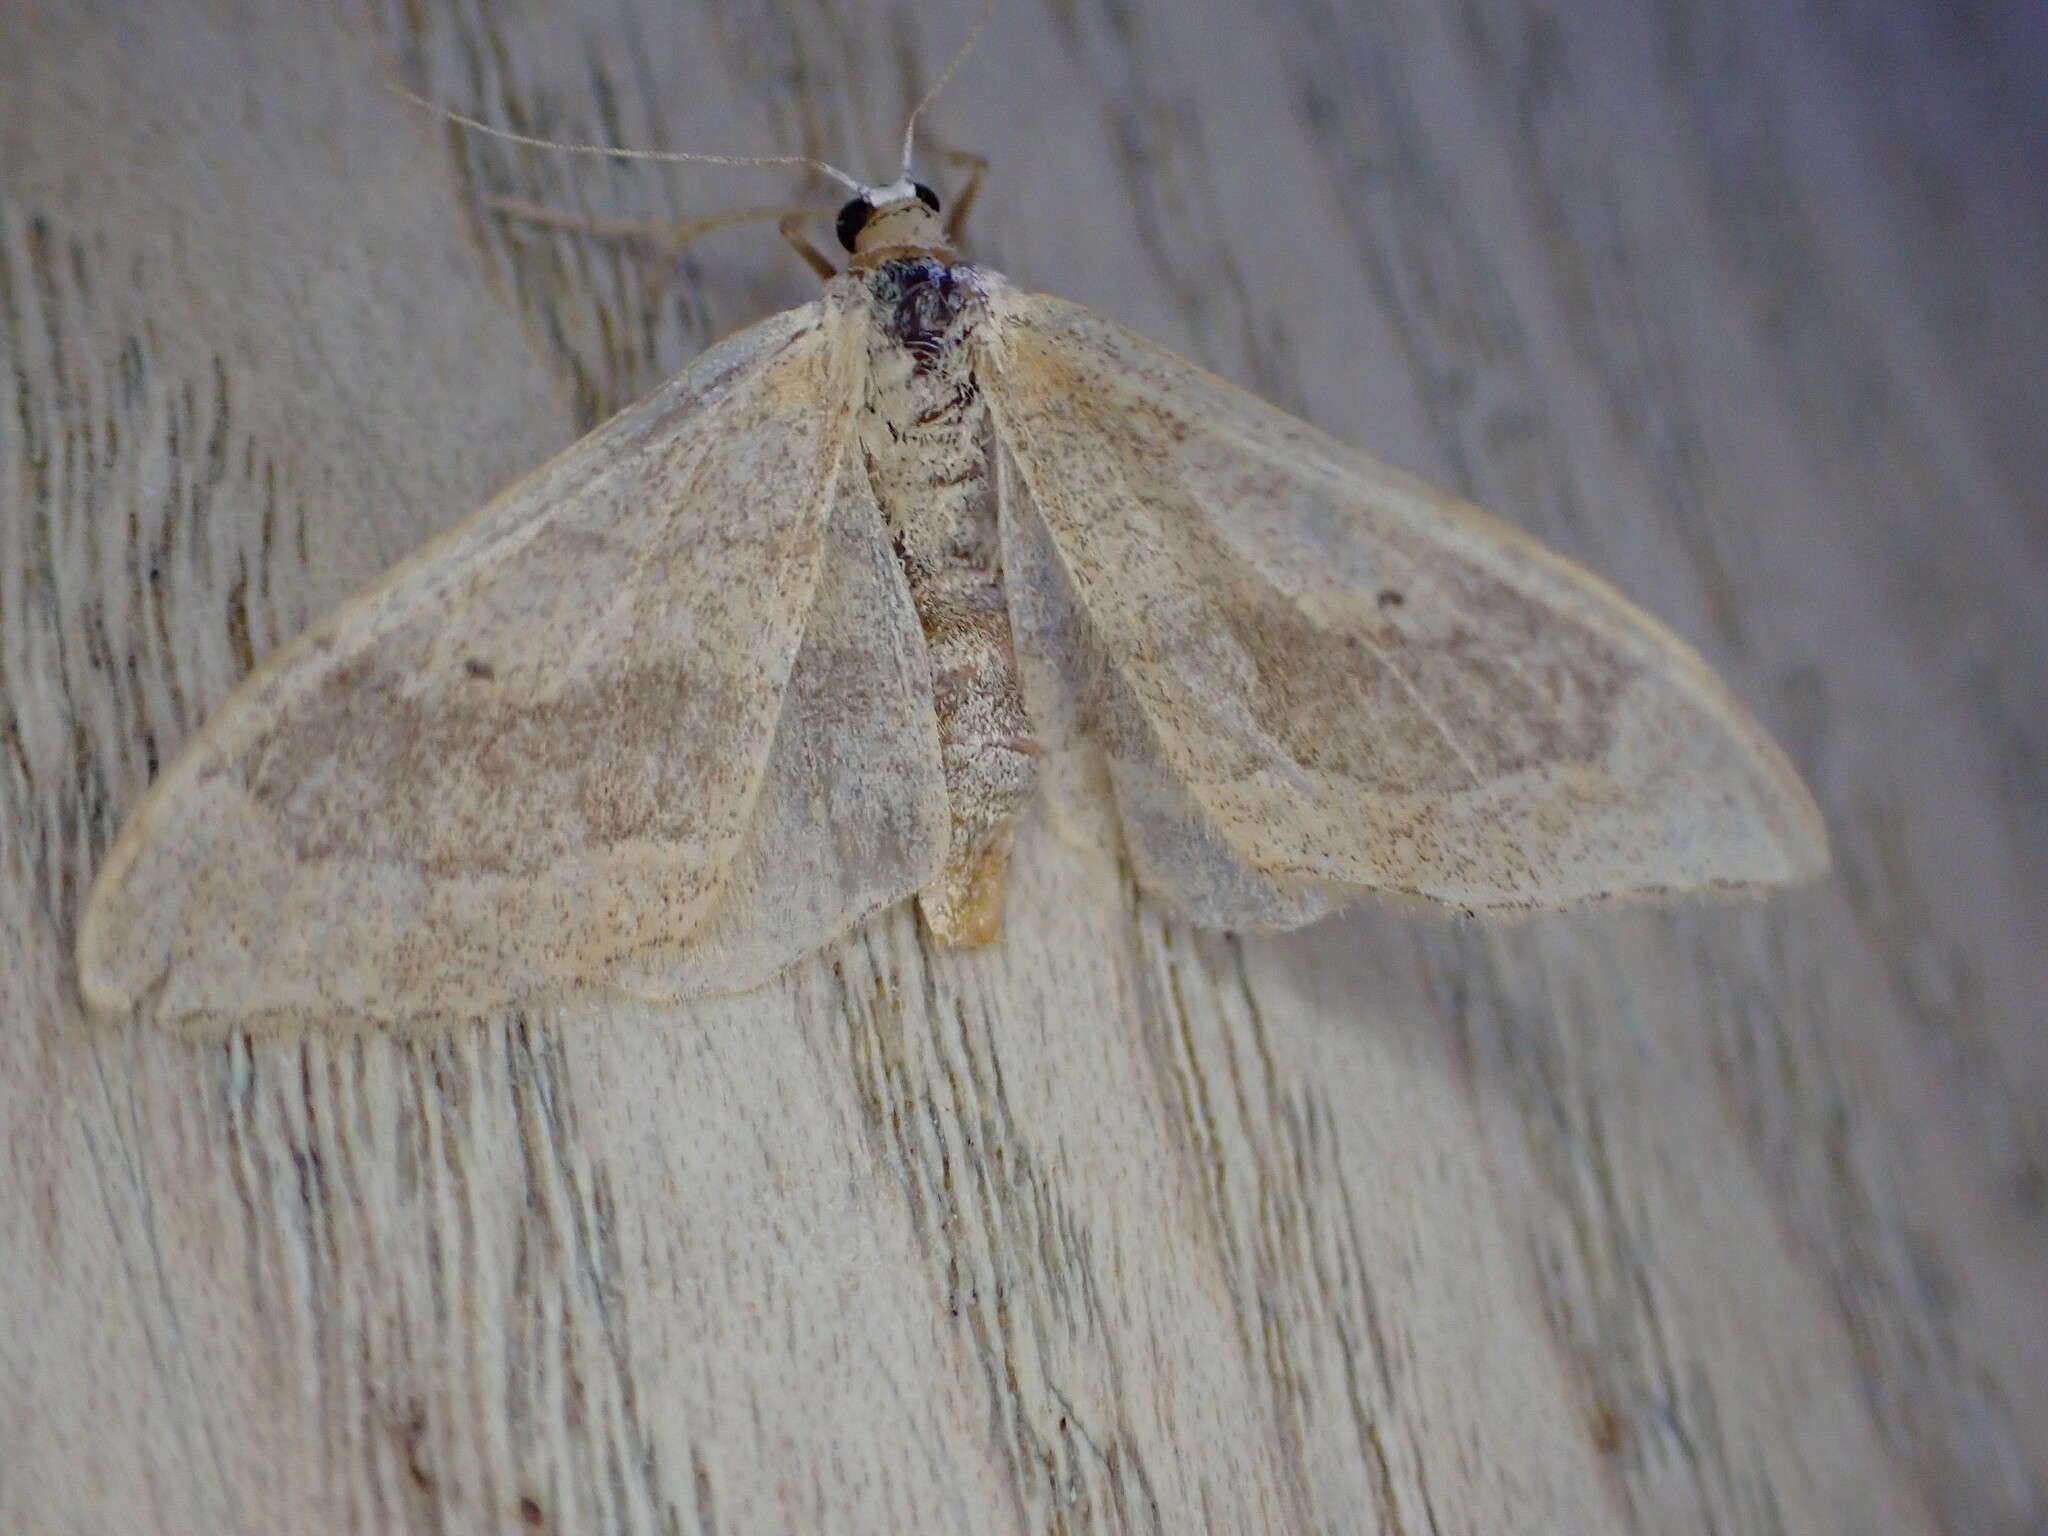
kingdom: Animalia
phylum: Arthropoda
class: Insecta
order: Lepidoptera
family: Geometridae
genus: Idaea
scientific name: Idaea aversata
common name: Riband wave
